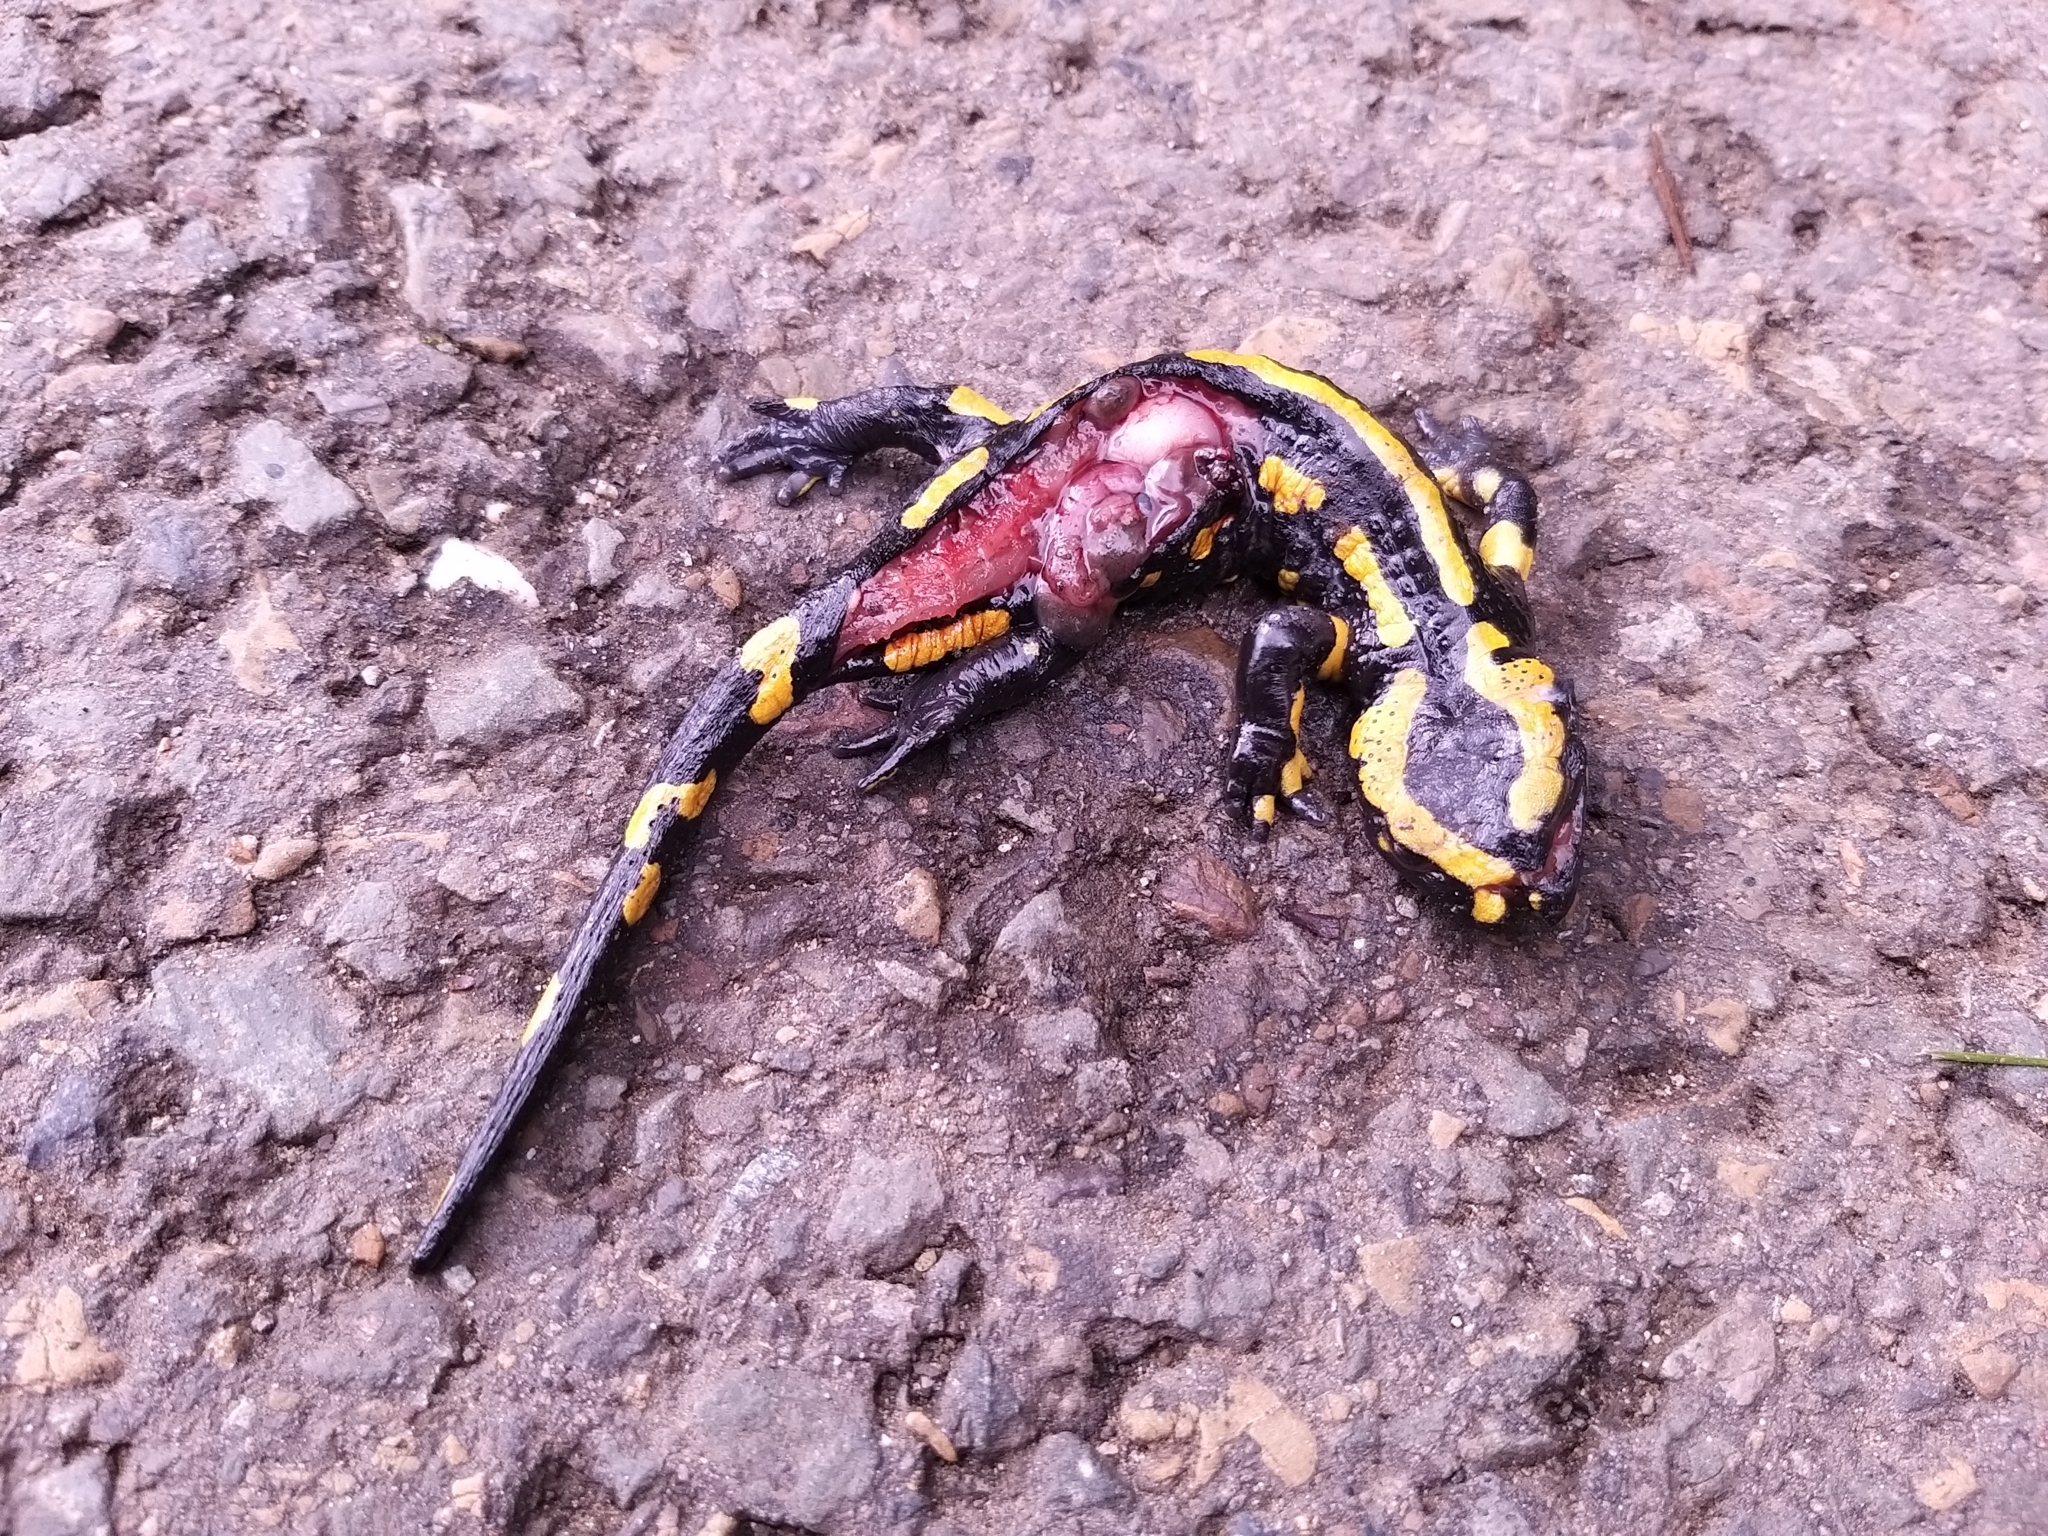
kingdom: Animalia
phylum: Chordata
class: Amphibia
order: Caudata
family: Salamandridae
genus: Salamandra
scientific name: Salamandra salamandra
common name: Fire salamander
